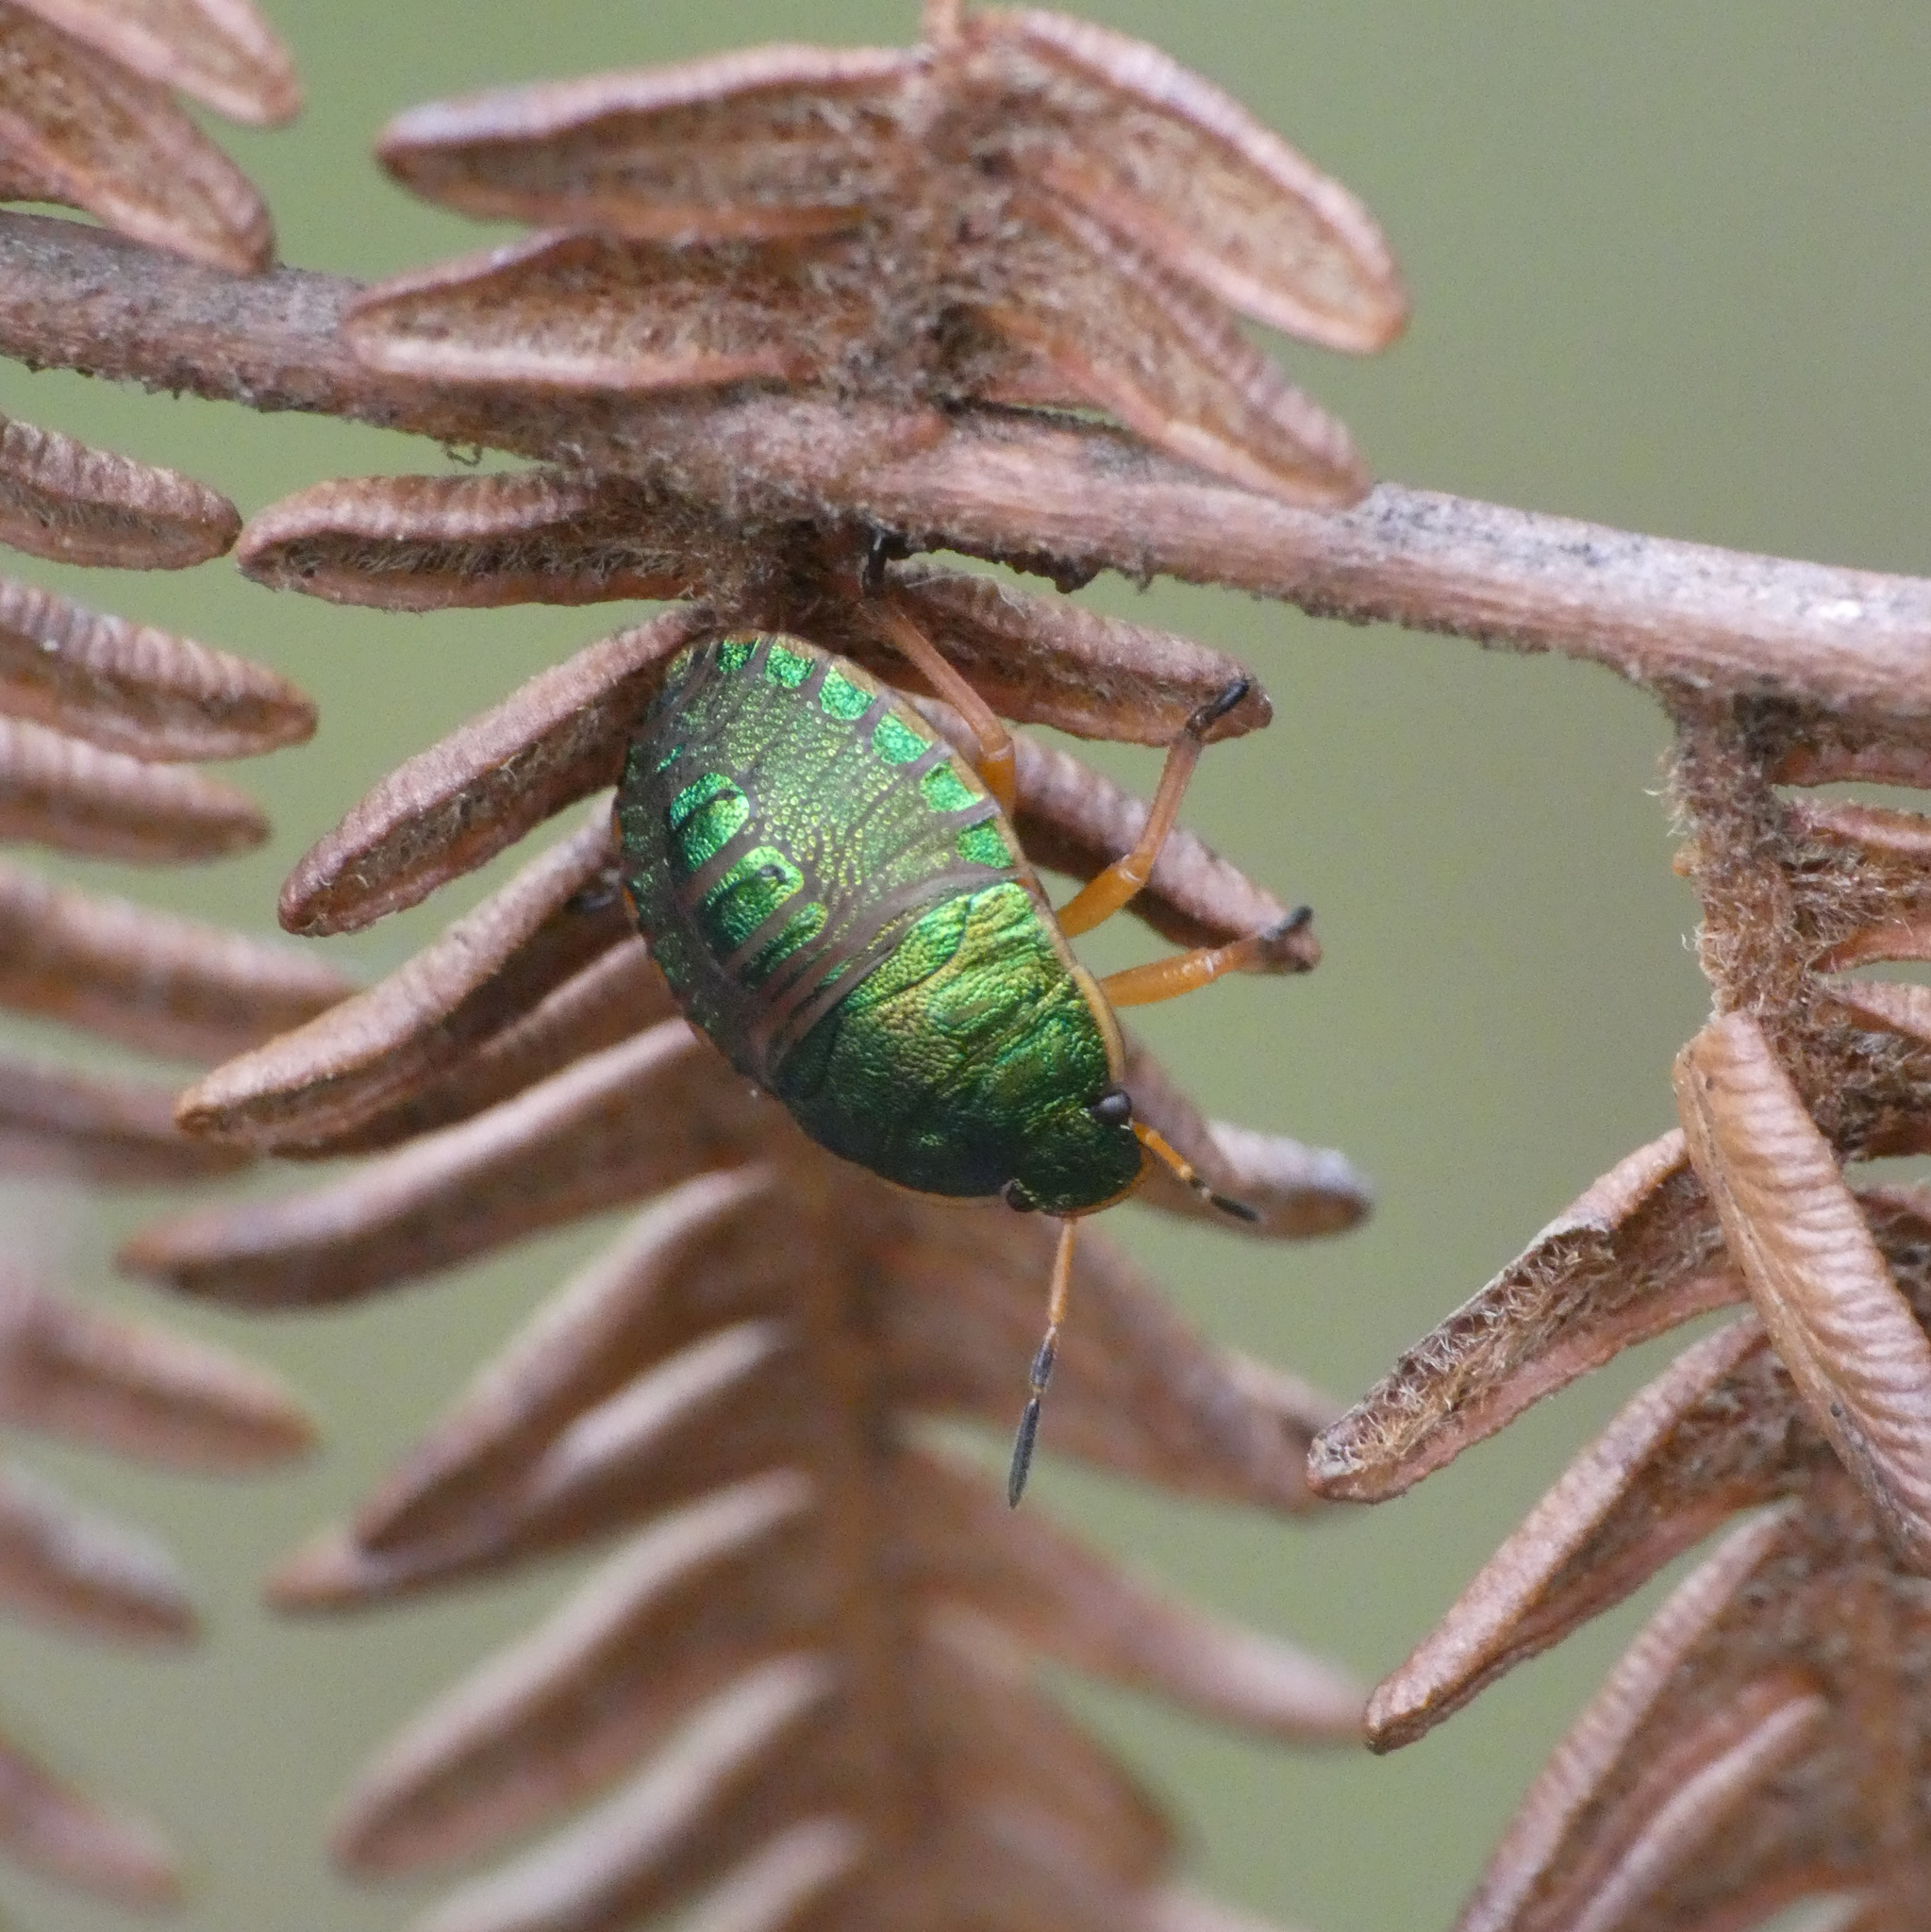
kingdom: Animalia
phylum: Arthropoda
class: Insecta
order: Hemiptera
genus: Erachtheus
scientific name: Erachtheus
